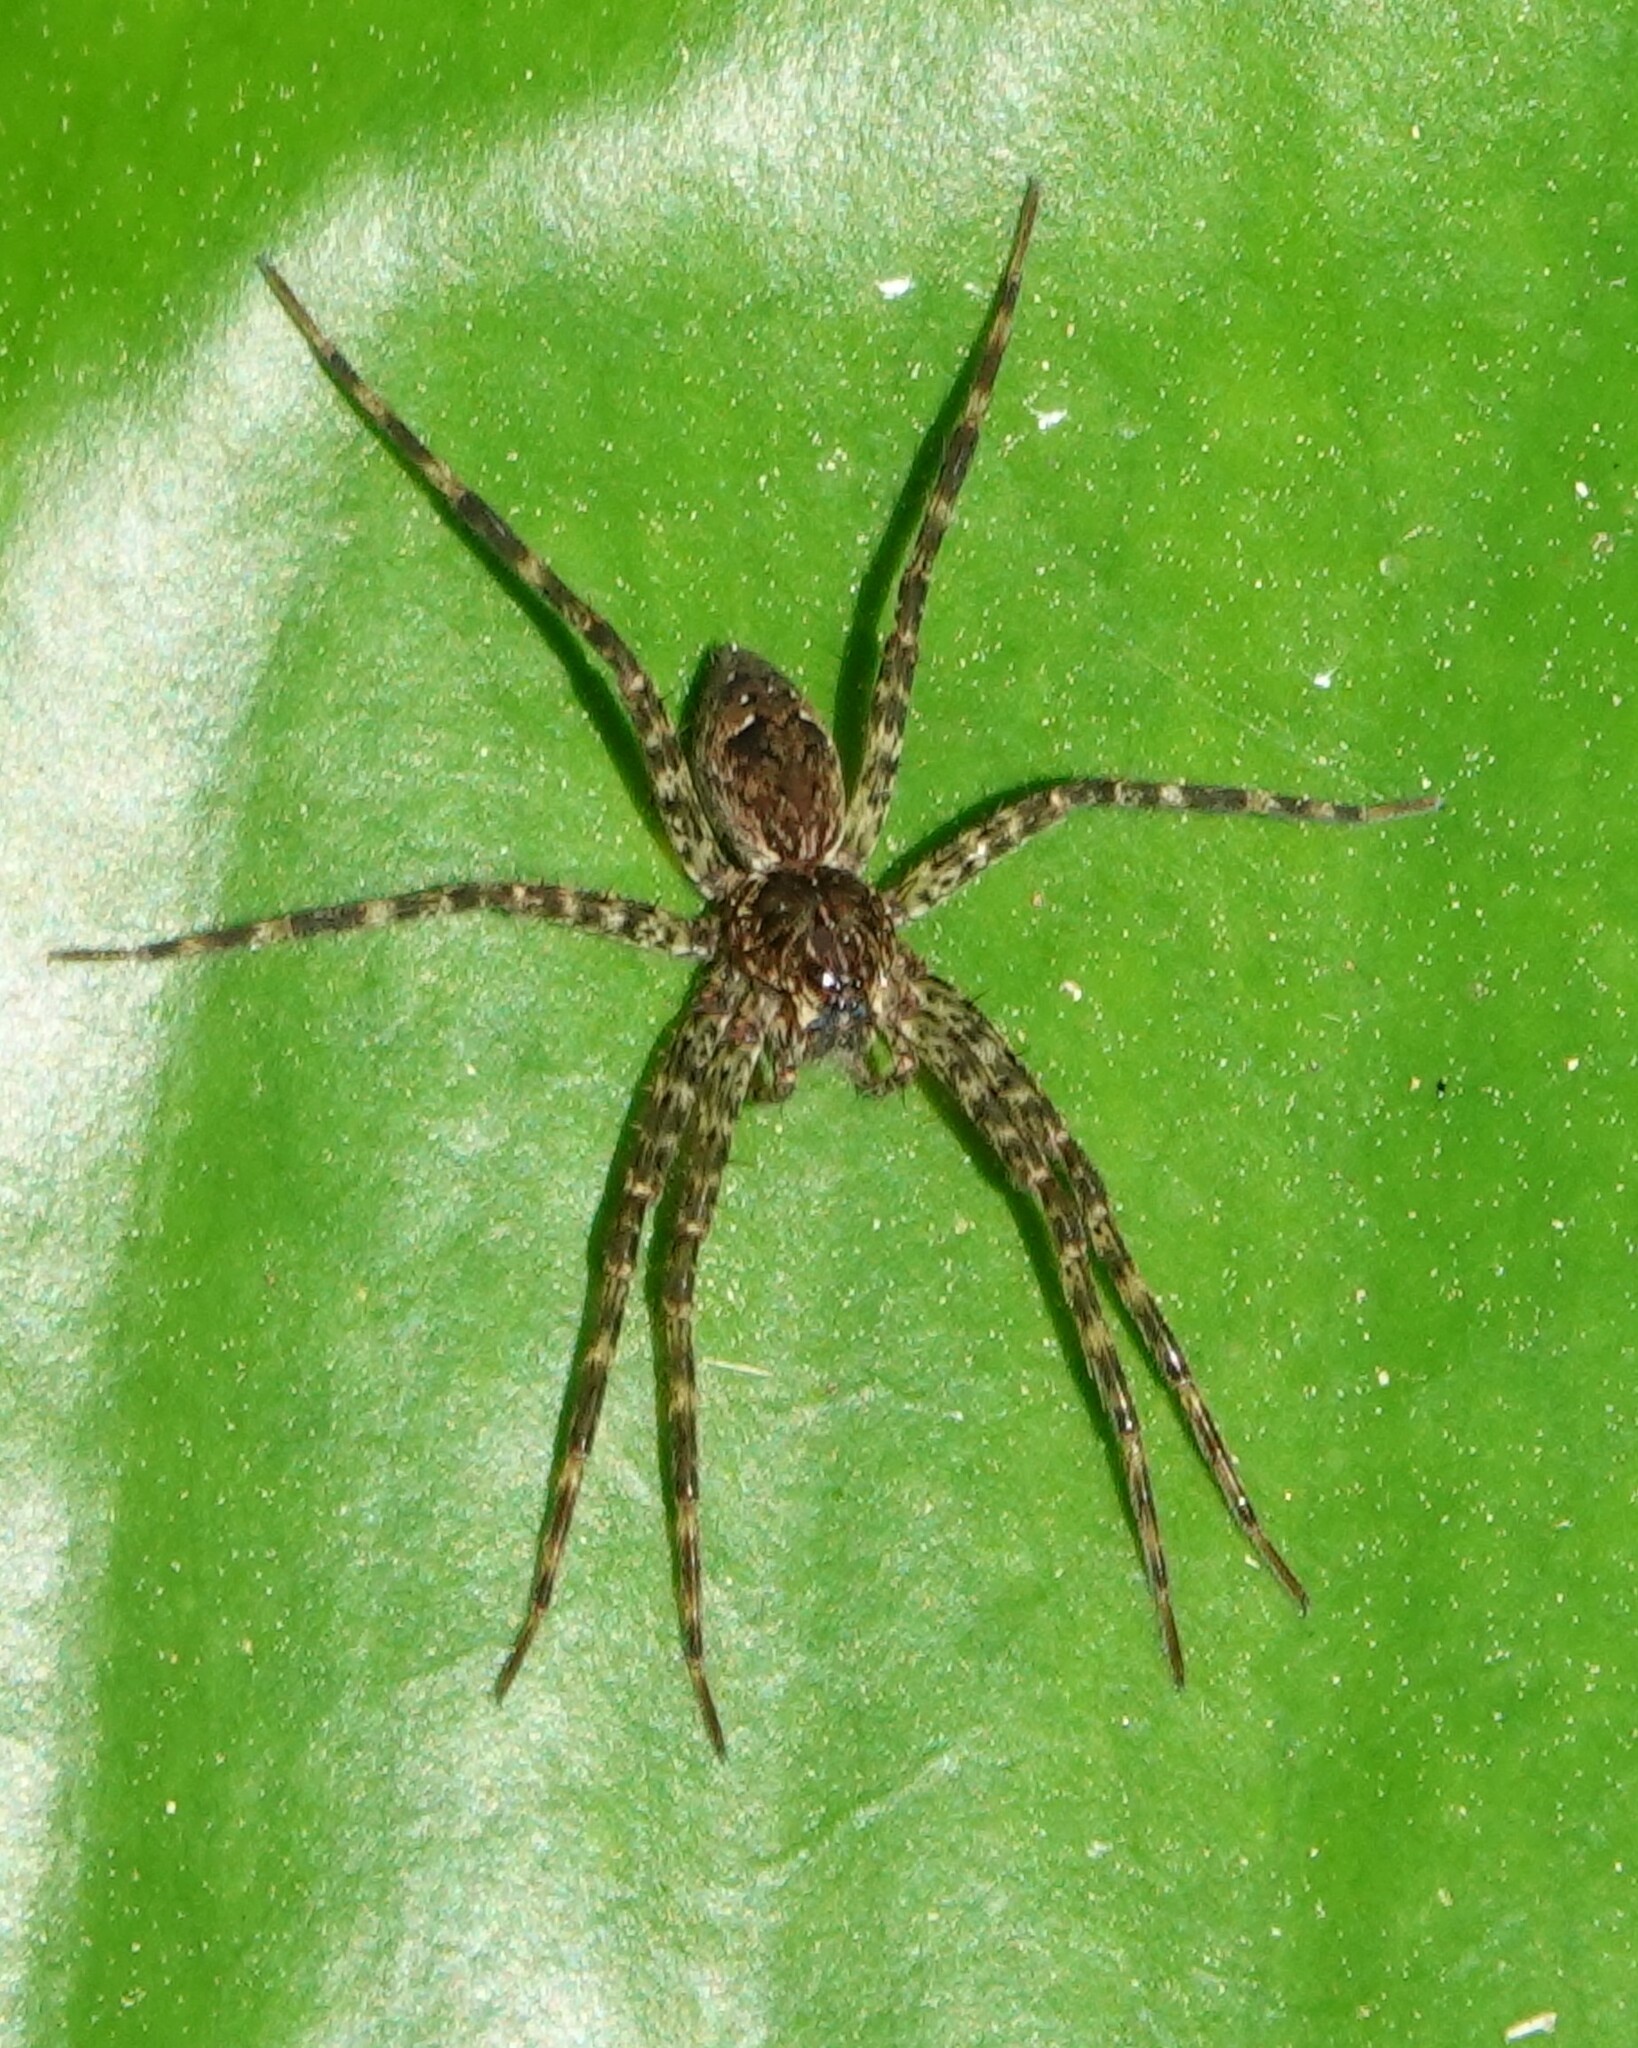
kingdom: Animalia
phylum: Arthropoda
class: Arachnida
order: Araneae
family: Pisauridae
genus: Dolomedes
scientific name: Dolomedes
